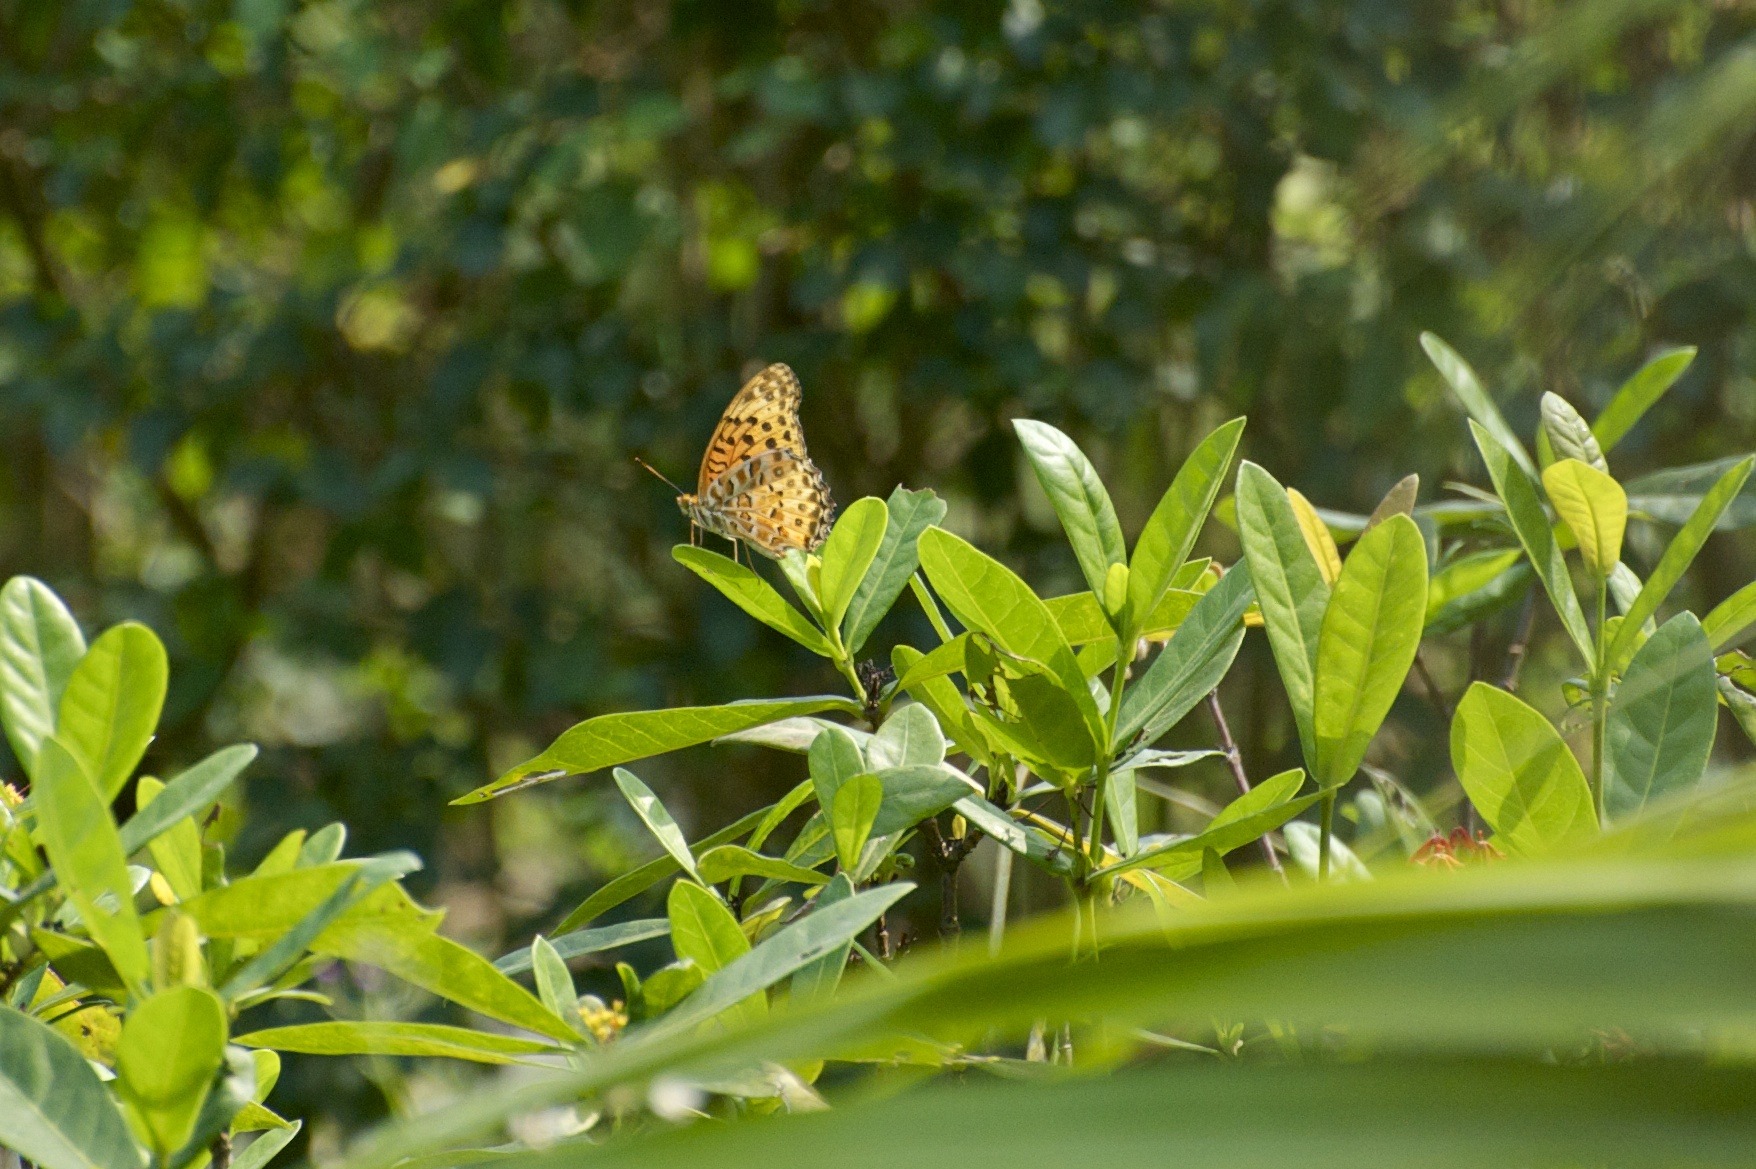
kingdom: Animalia
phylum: Arthropoda
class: Insecta
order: Lepidoptera
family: Nymphalidae
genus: Argynnis
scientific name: Argynnis hyperbius
